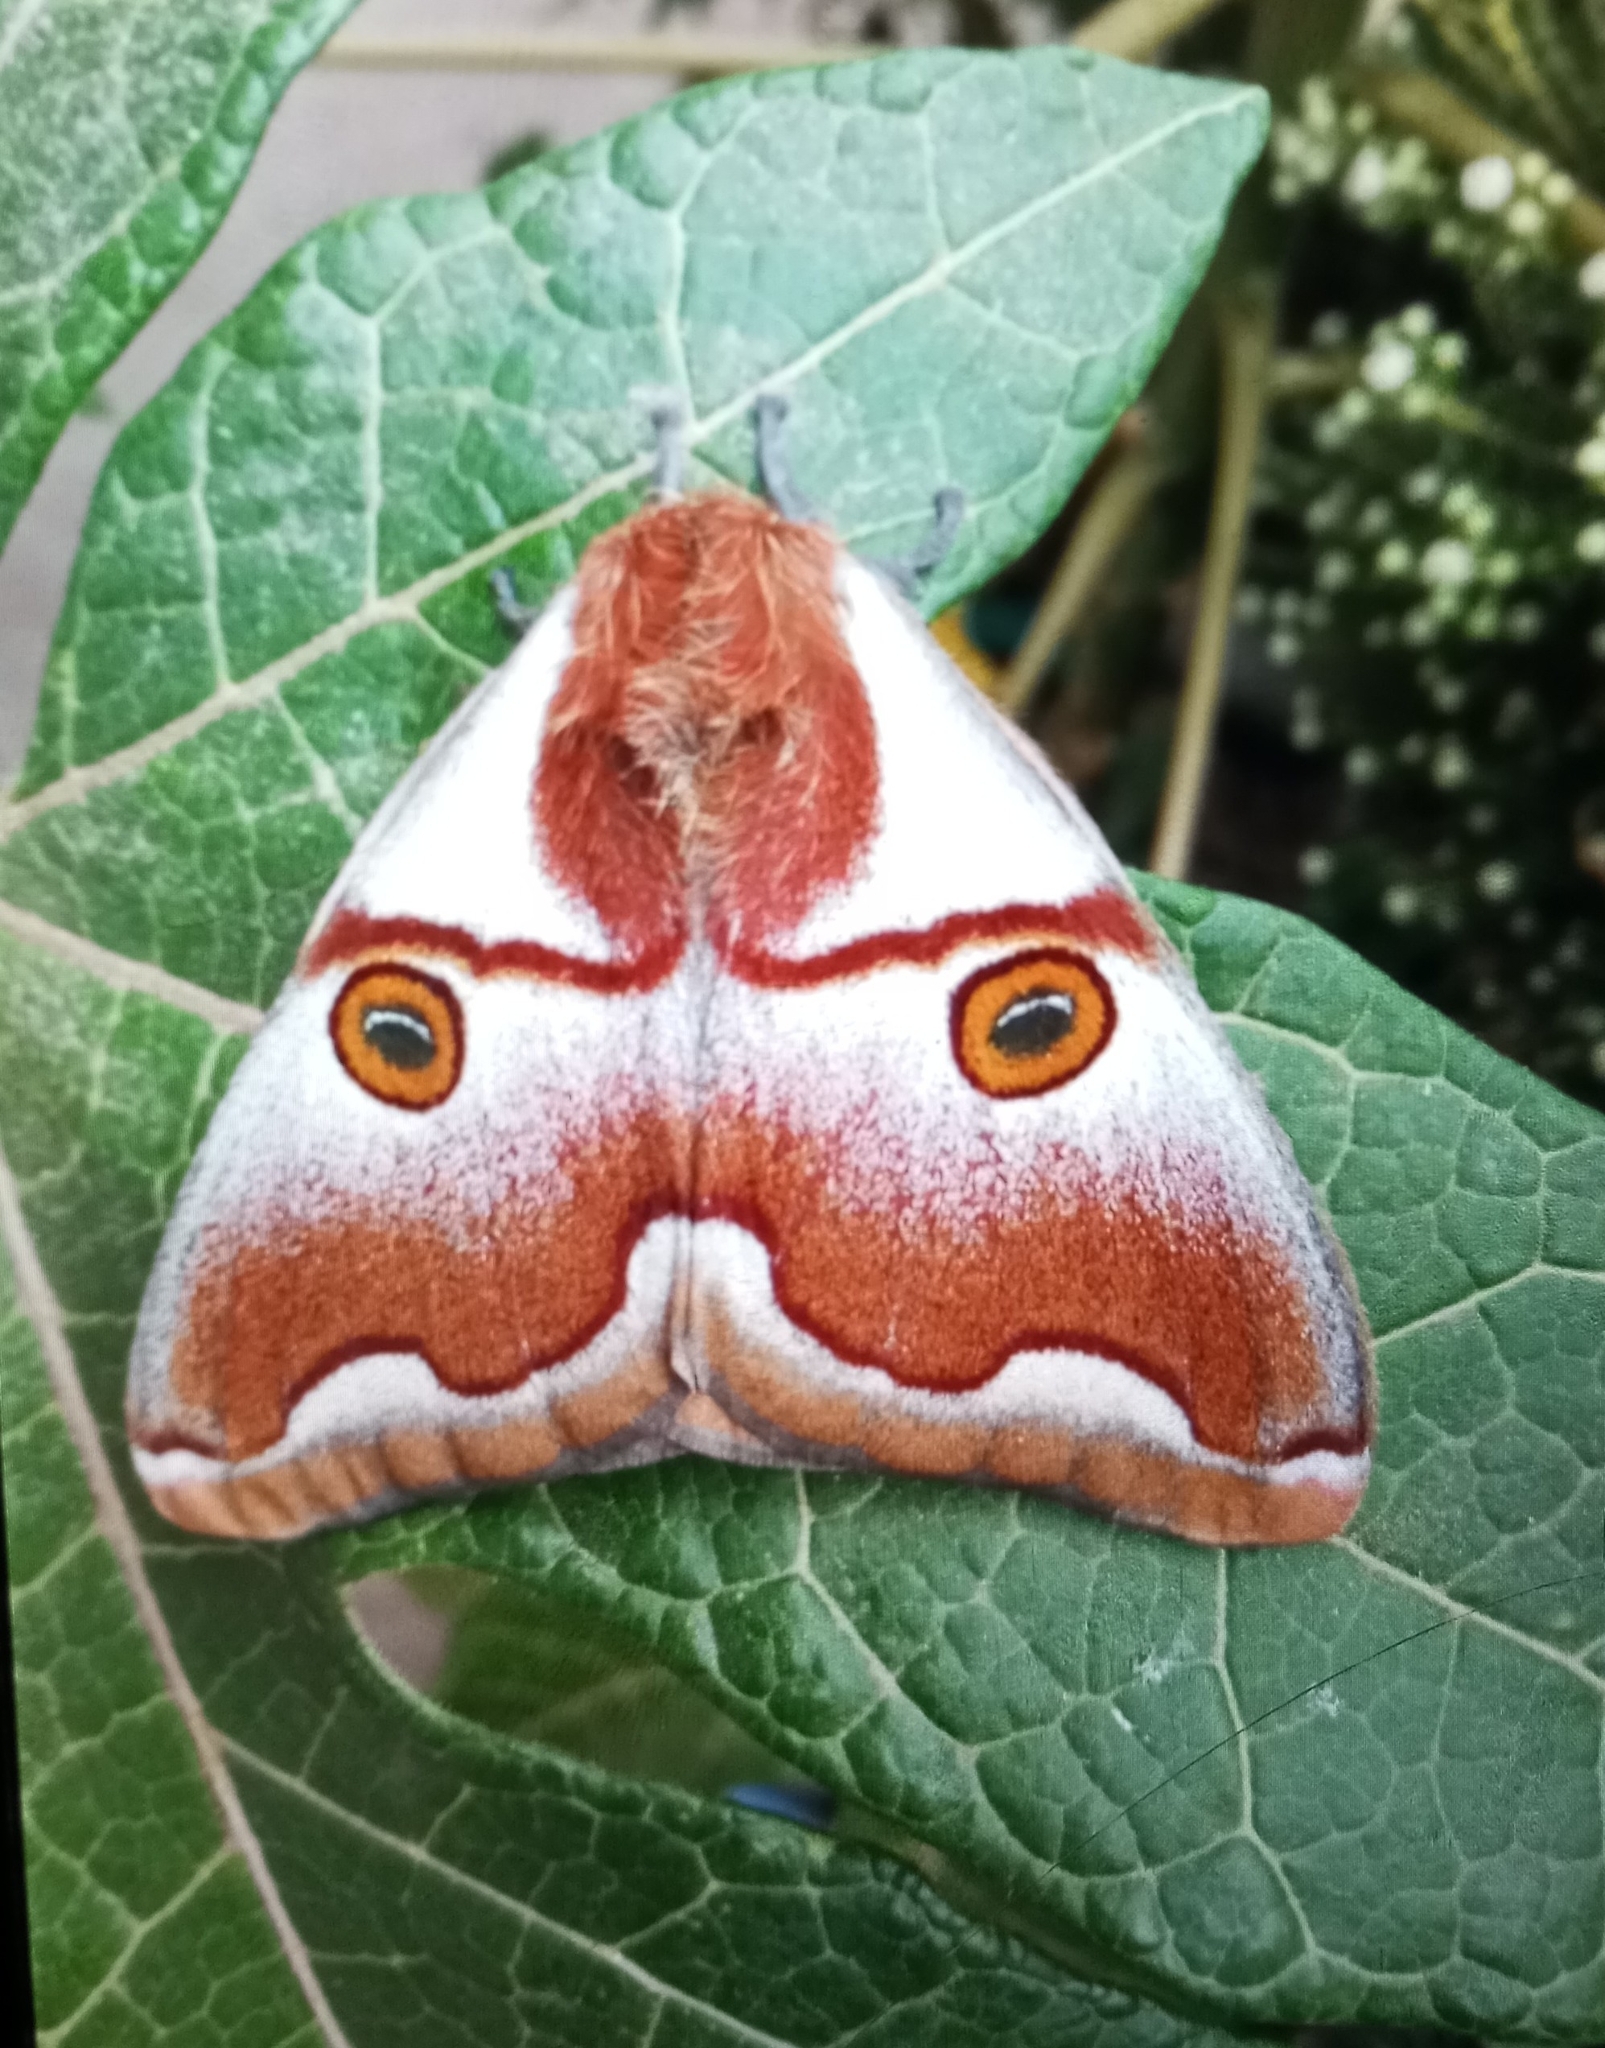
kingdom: Animalia
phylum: Arthropoda
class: Insecta
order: Lepidoptera
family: Saturniidae
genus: Polythysana
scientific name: Polythysana apollina
